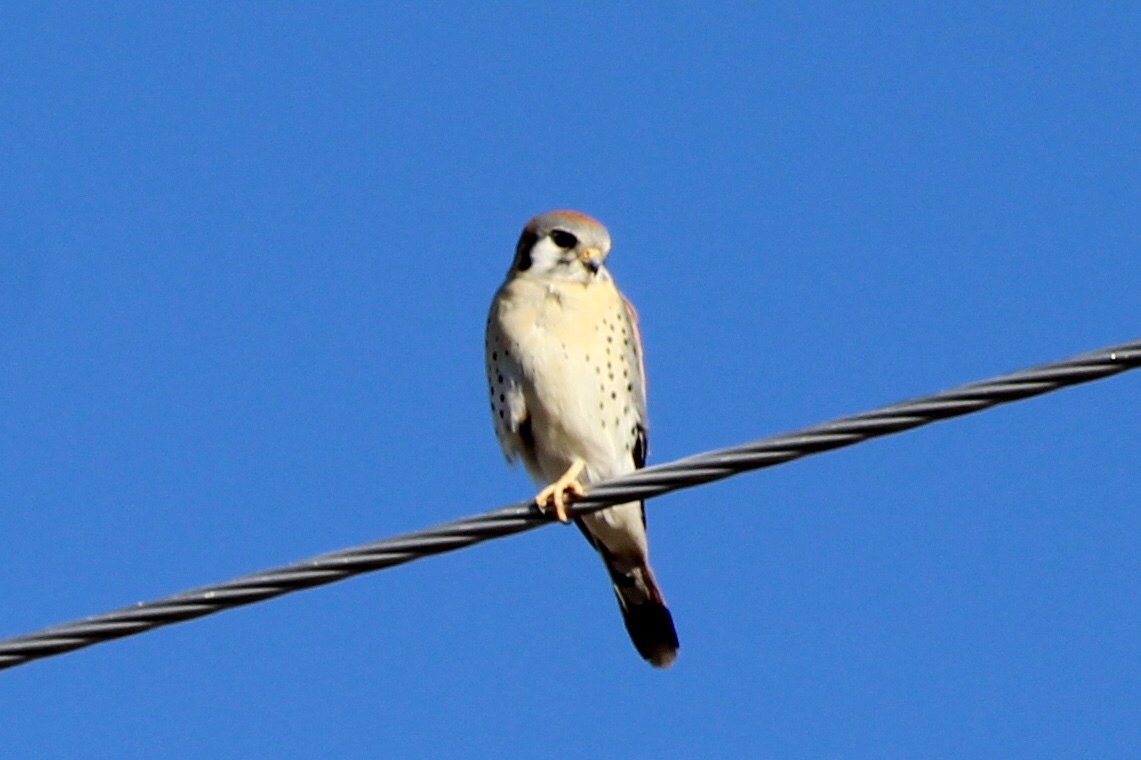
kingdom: Animalia
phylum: Chordata
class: Aves
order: Falconiformes
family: Falconidae
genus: Falco
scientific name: Falco sparverius
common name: American kestrel
